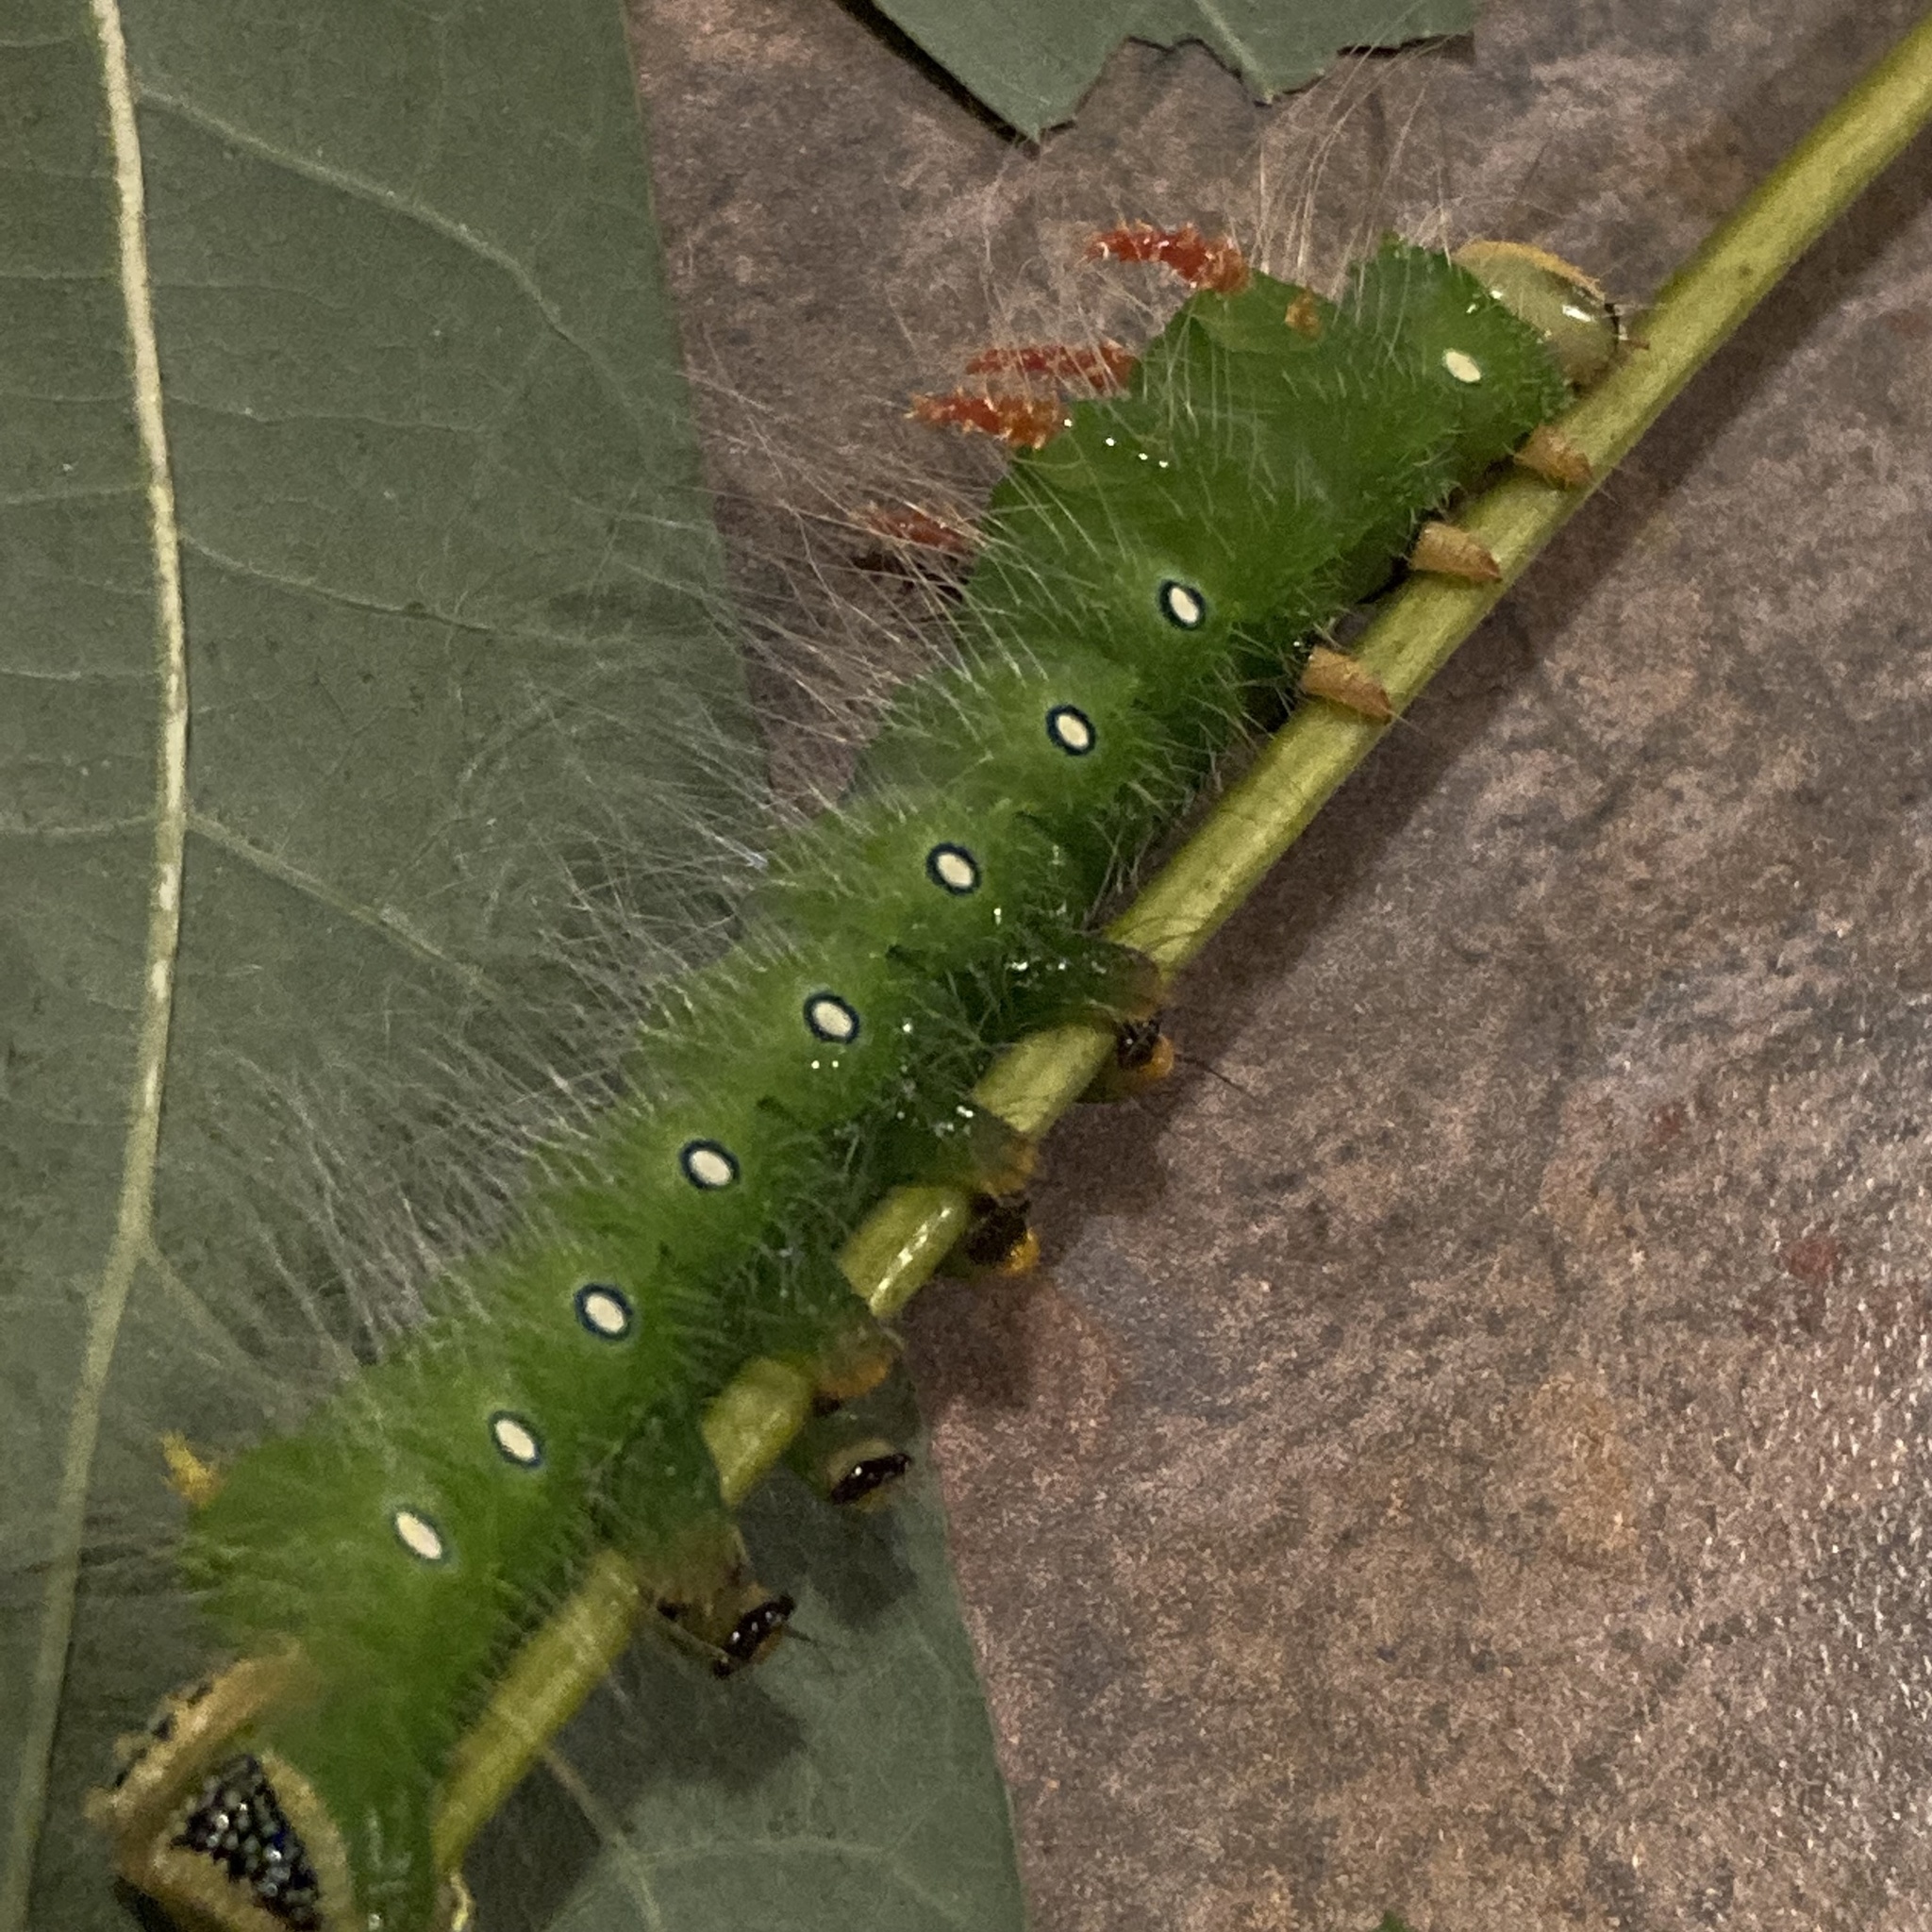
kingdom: Animalia
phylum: Arthropoda
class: Insecta
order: Lepidoptera
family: Saturniidae
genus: Eacles
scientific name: Eacles imperialis
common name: Imperial moth
